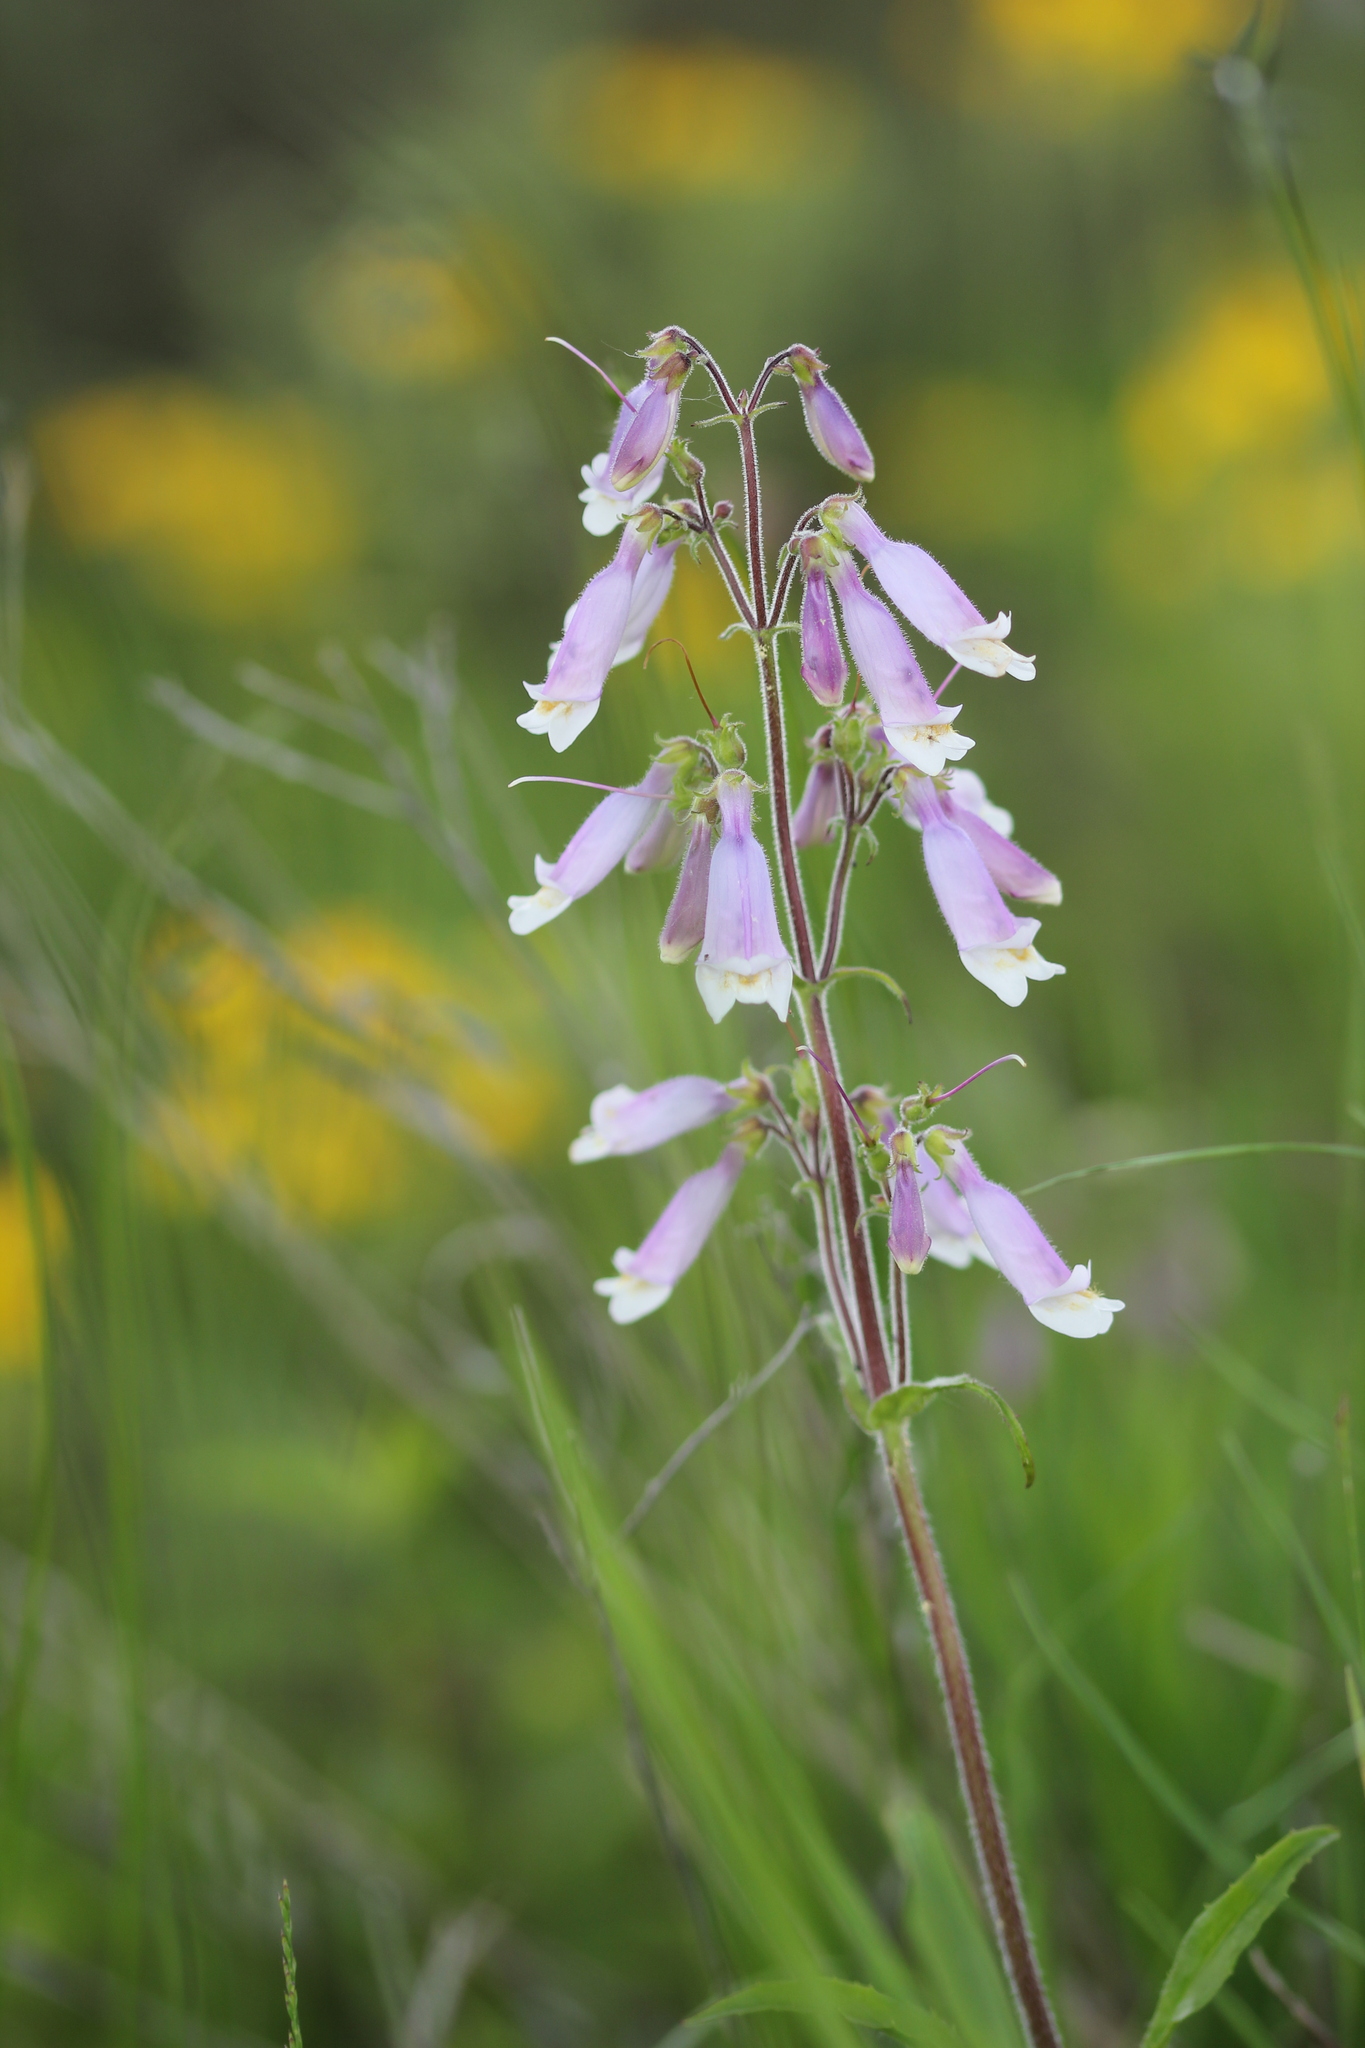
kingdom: Plantae
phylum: Tracheophyta
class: Magnoliopsida
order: Lamiales
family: Plantaginaceae
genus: Penstemon
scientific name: Penstemon hirsutus
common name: Hairy beardtongue
